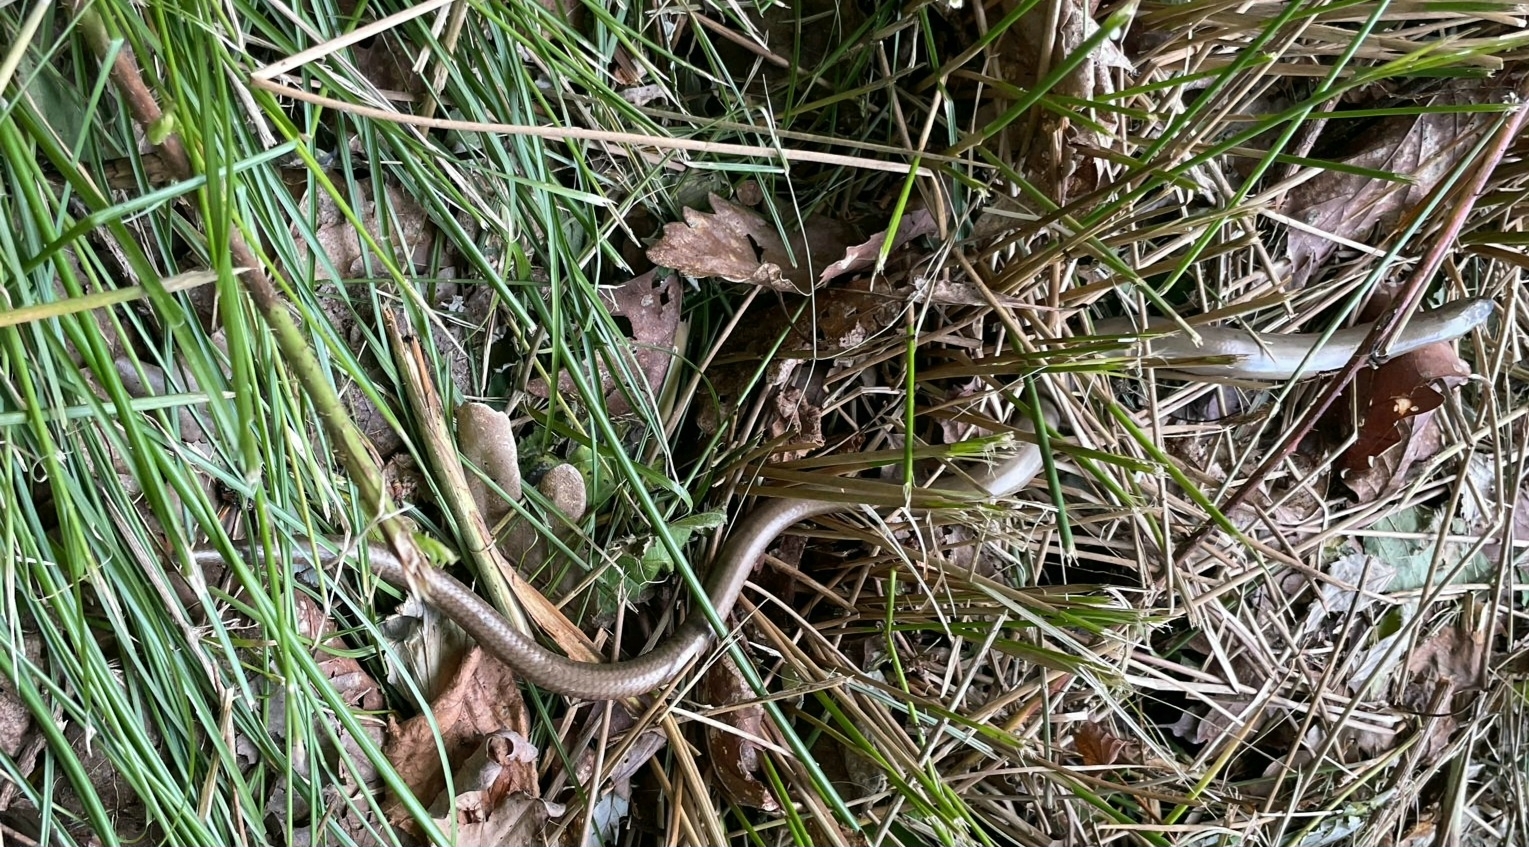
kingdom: Animalia
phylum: Chordata
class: Squamata
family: Anguidae
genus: Anguis
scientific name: Anguis fragilis
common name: Slow worm
